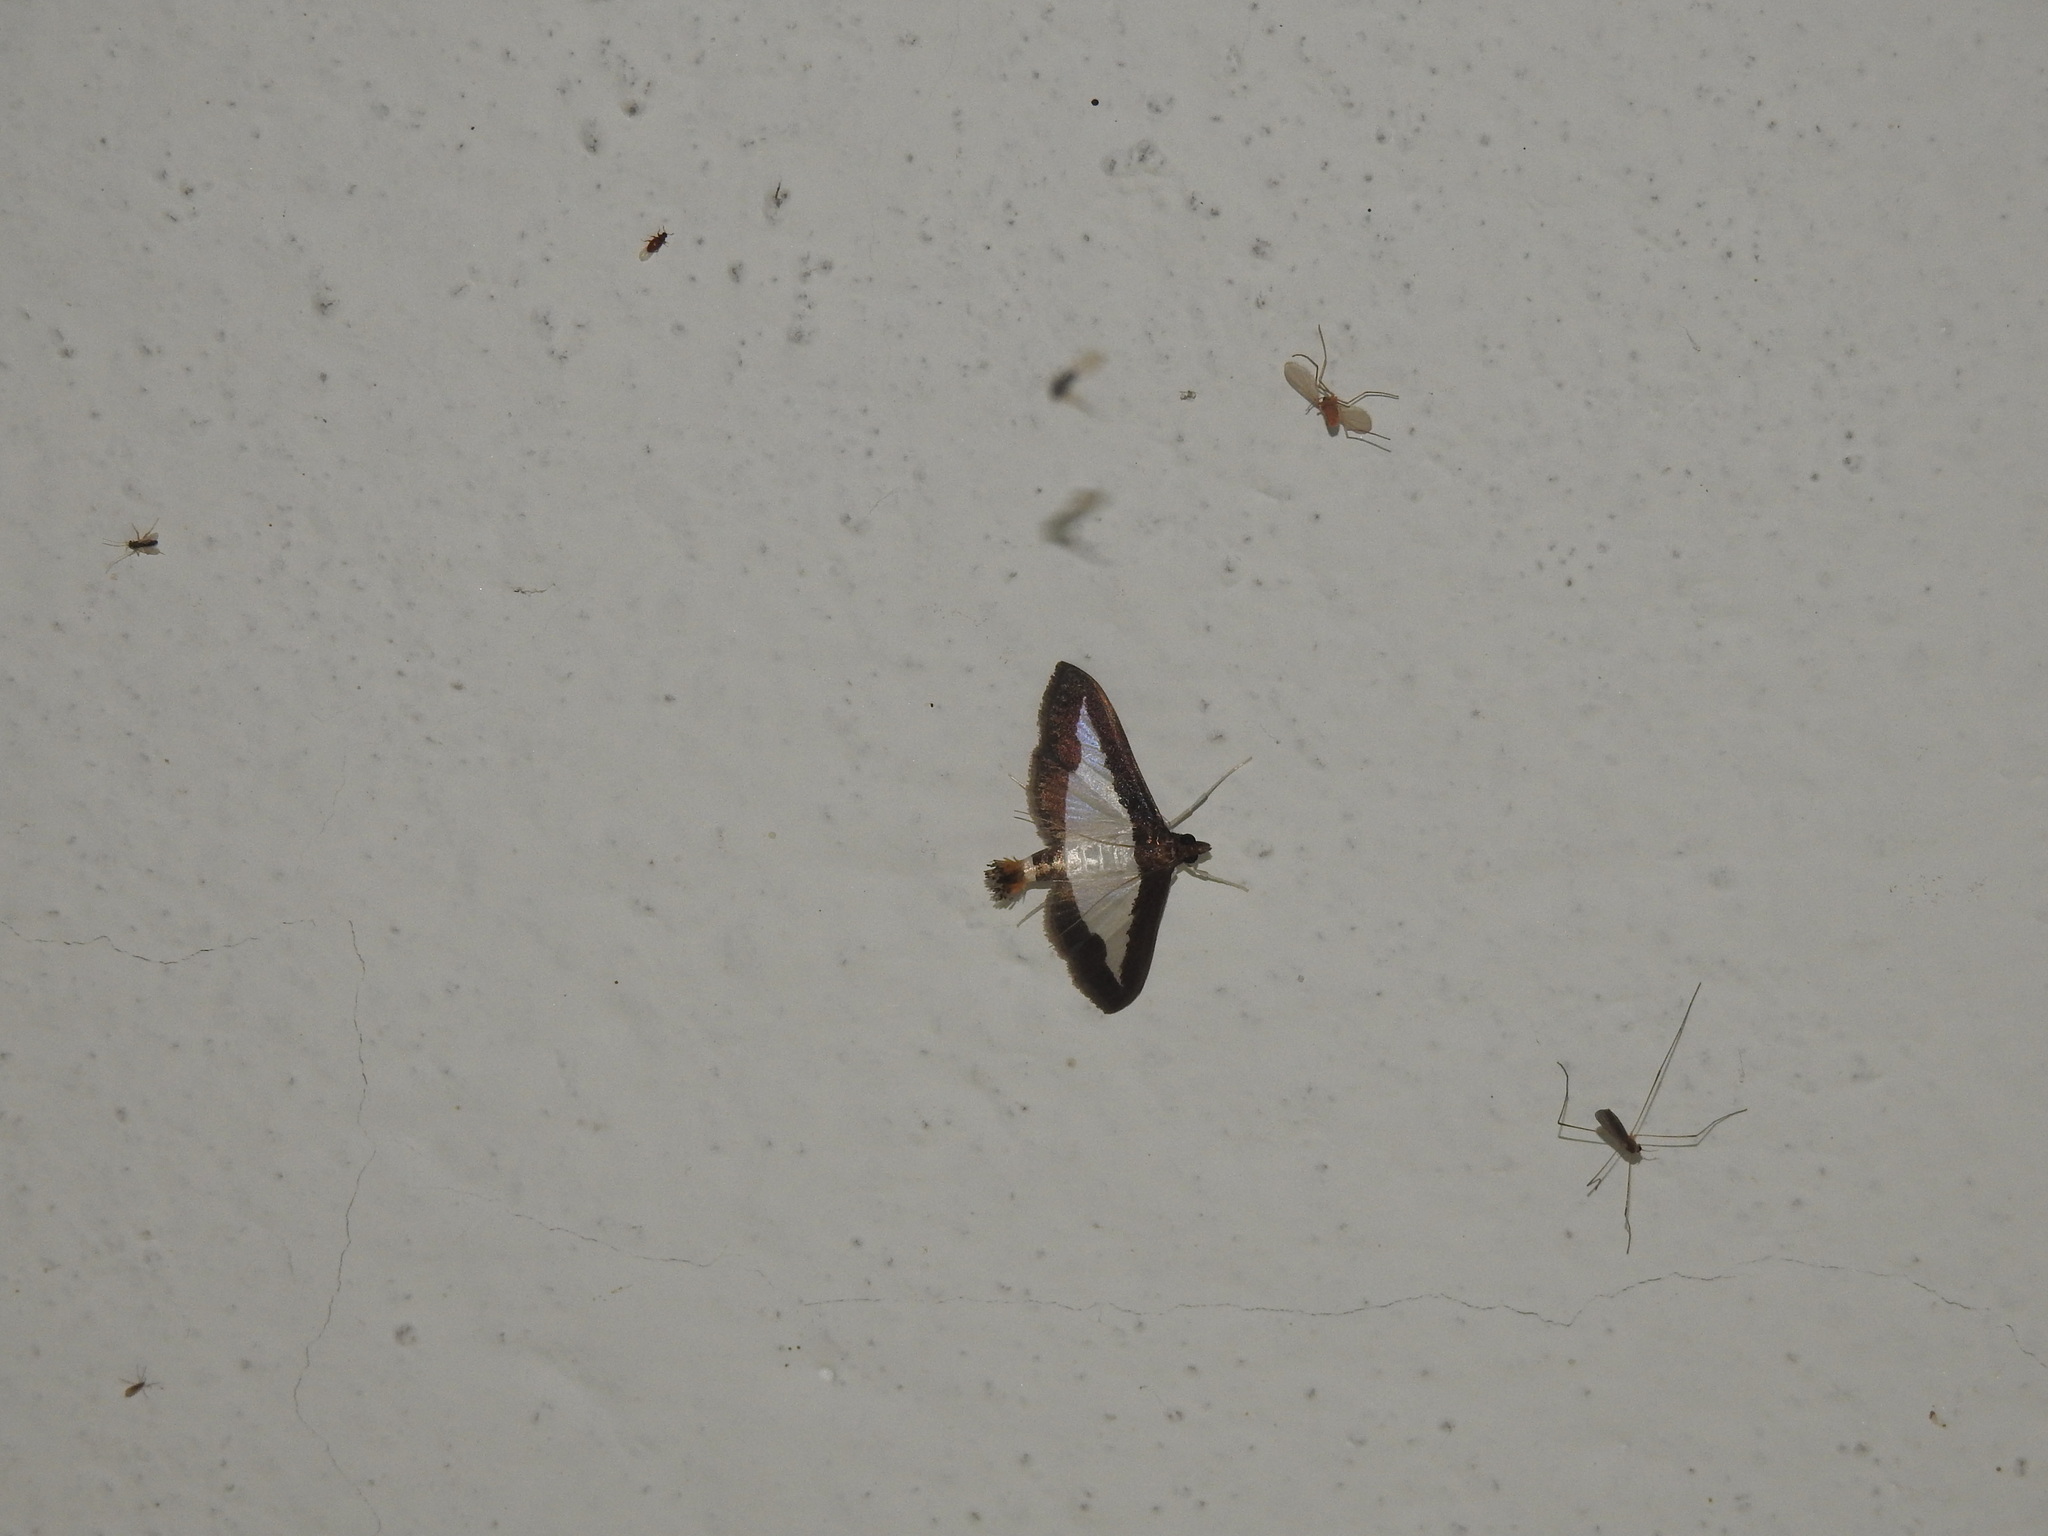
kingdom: Animalia
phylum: Arthropoda
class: Insecta
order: Lepidoptera
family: Crambidae
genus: Diaphania
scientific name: Diaphania indica
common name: Cucumber moth
